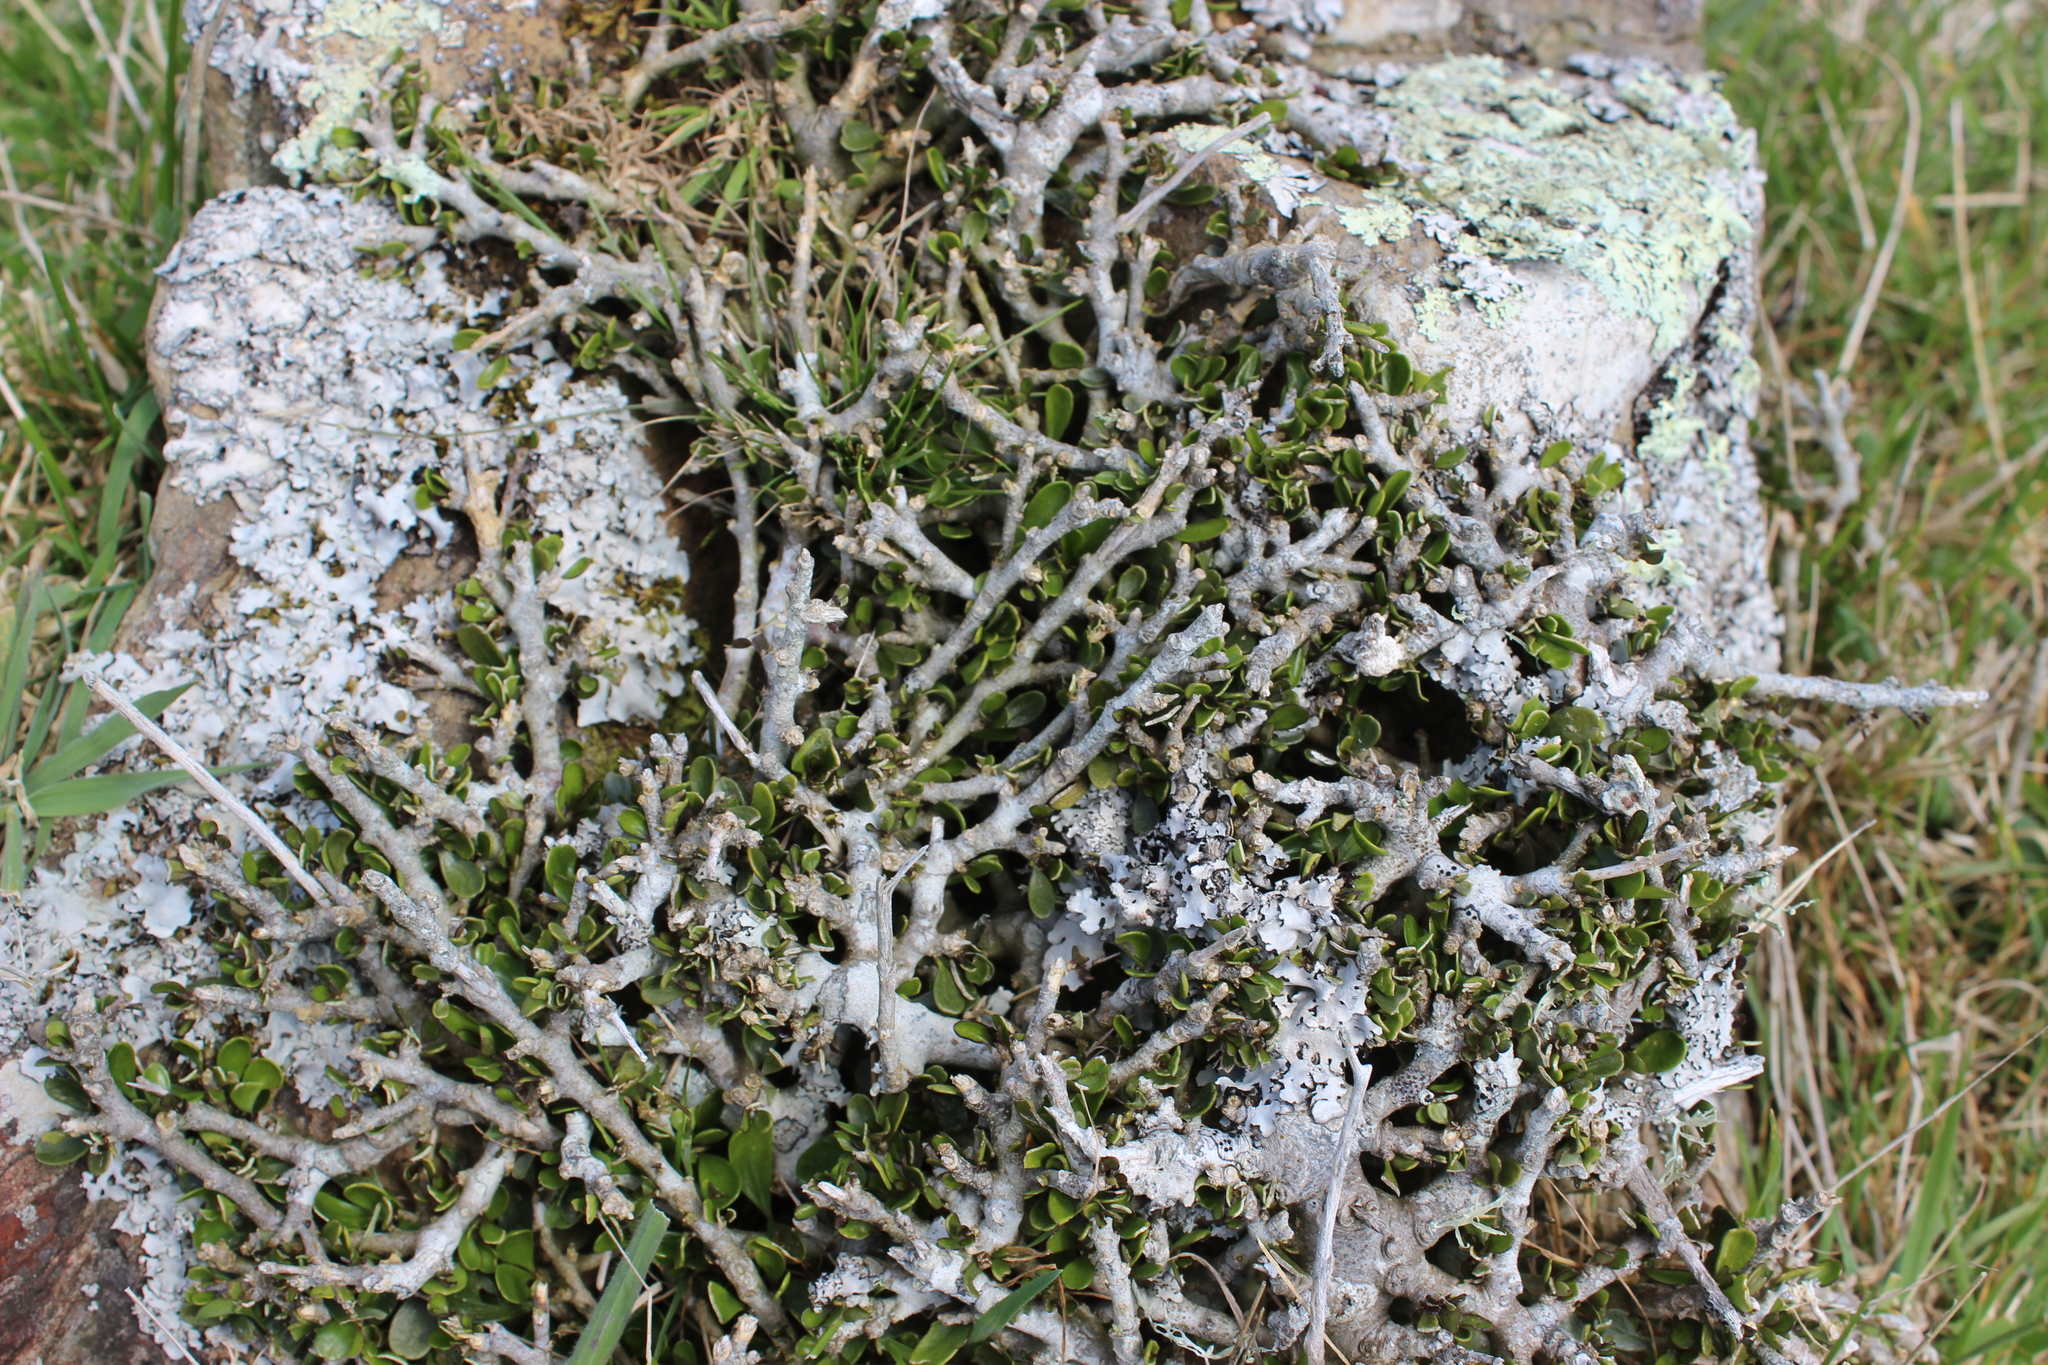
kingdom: Plantae
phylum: Tracheophyta
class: Magnoliopsida
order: Malpighiales
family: Violaceae
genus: Melicytus
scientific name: Melicytus crassifolius
